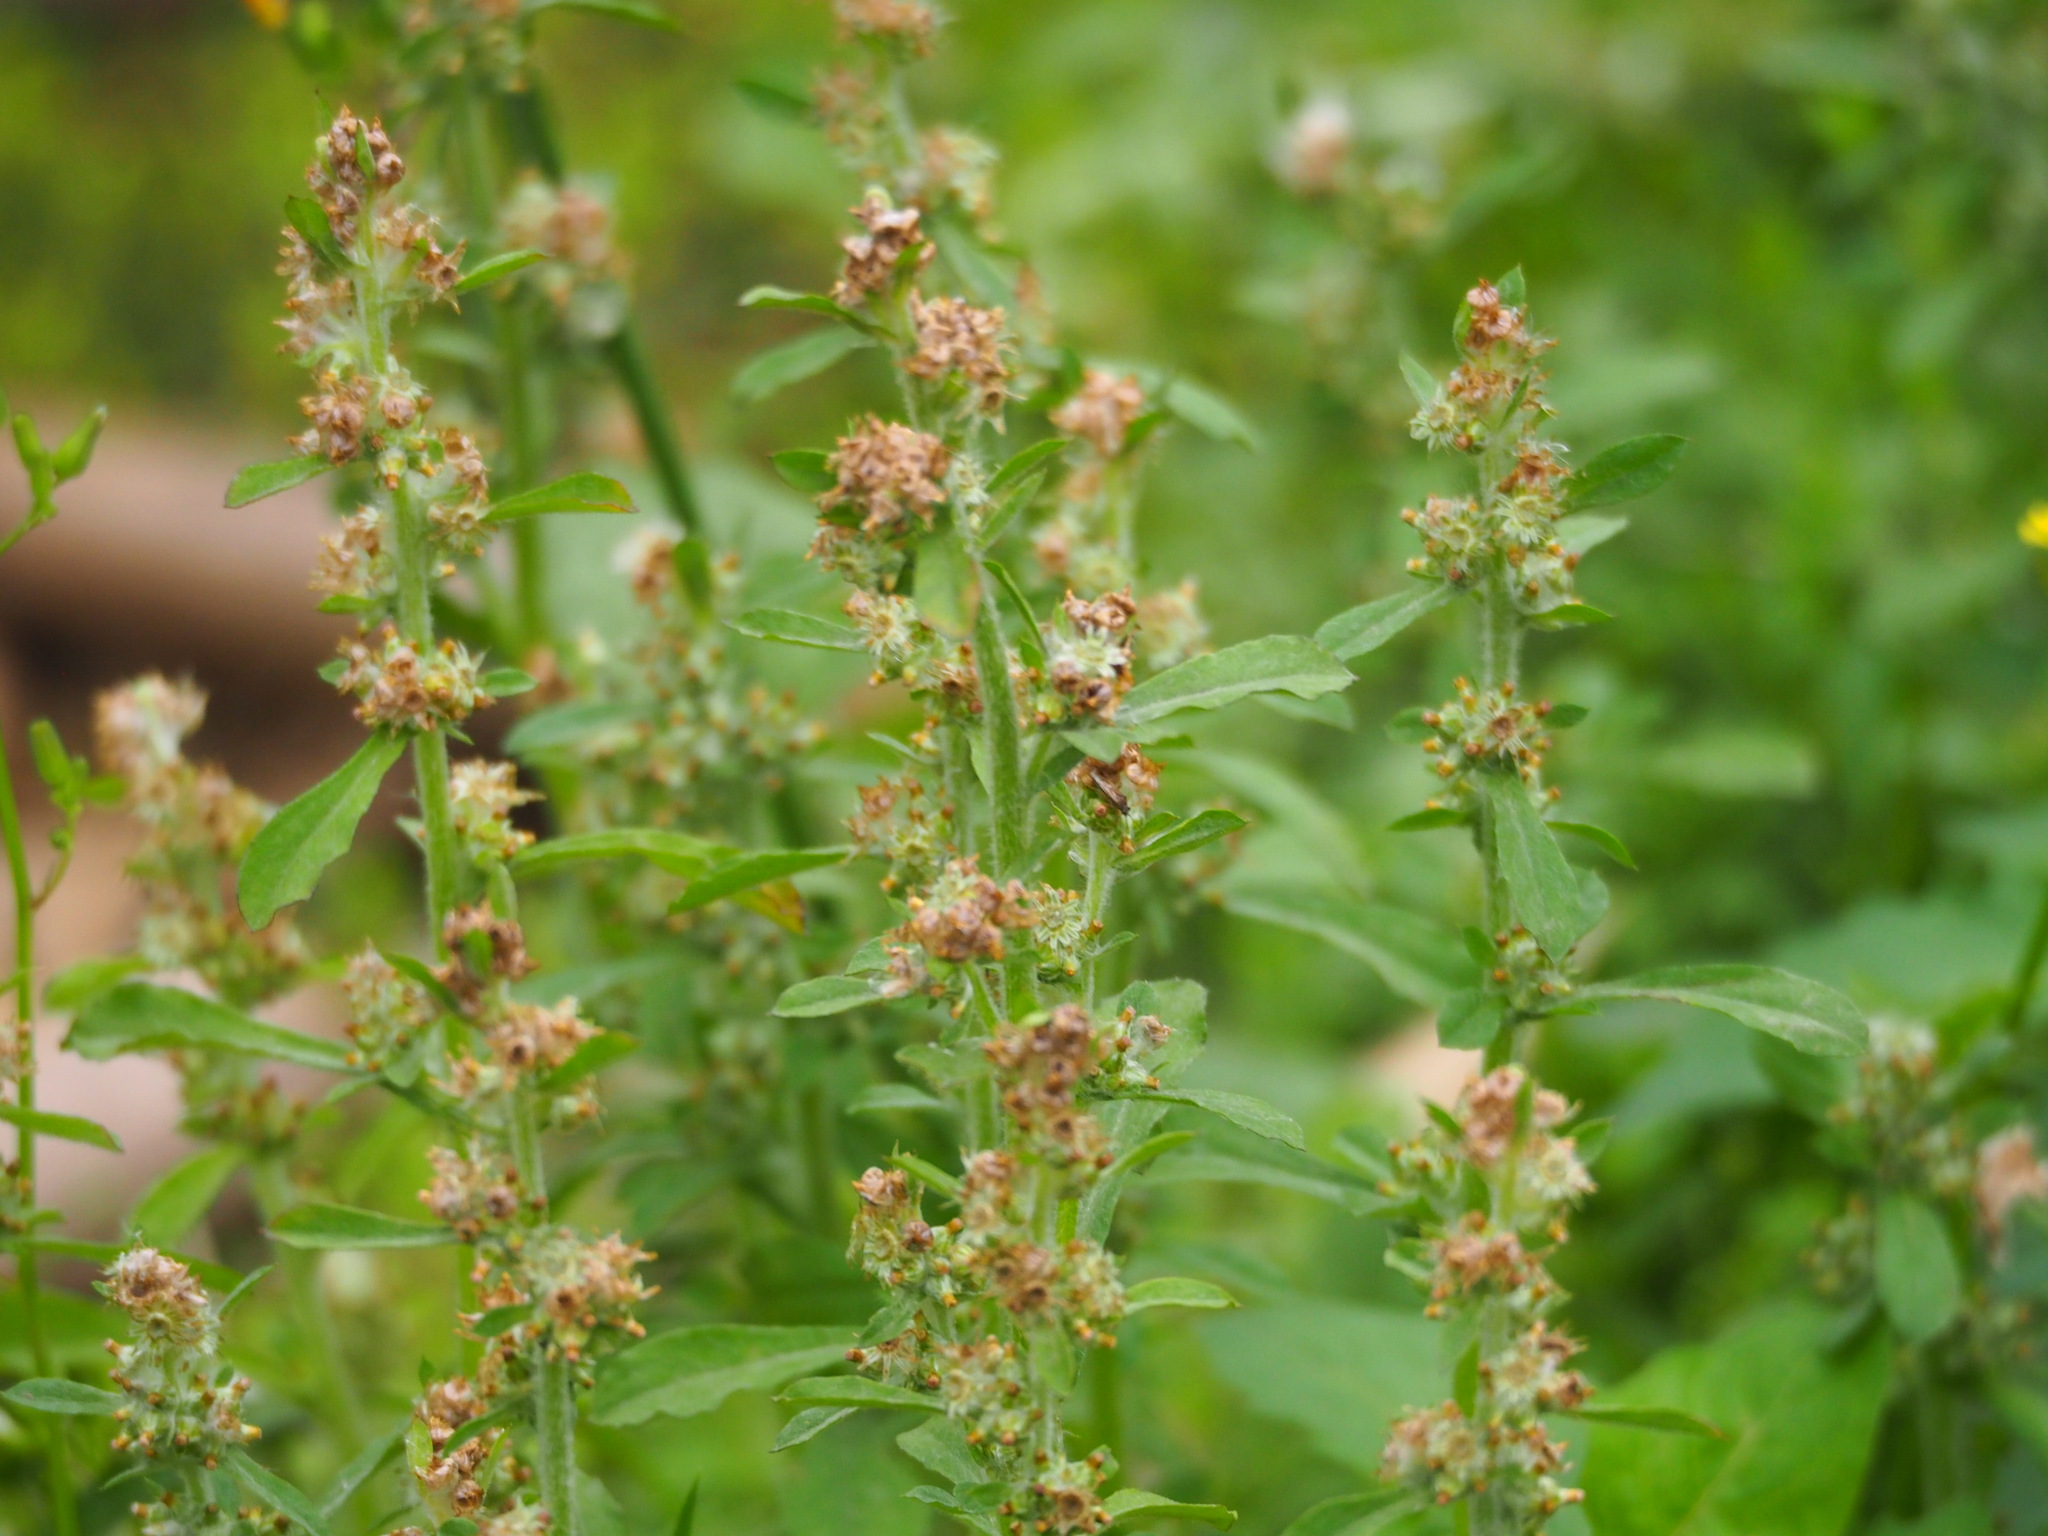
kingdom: Plantae
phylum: Tracheophyta
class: Magnoliopsida
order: Asterales
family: Asteraceae
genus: Gamochaeta
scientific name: Gamochaeta purpurea
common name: Purple cudweed
